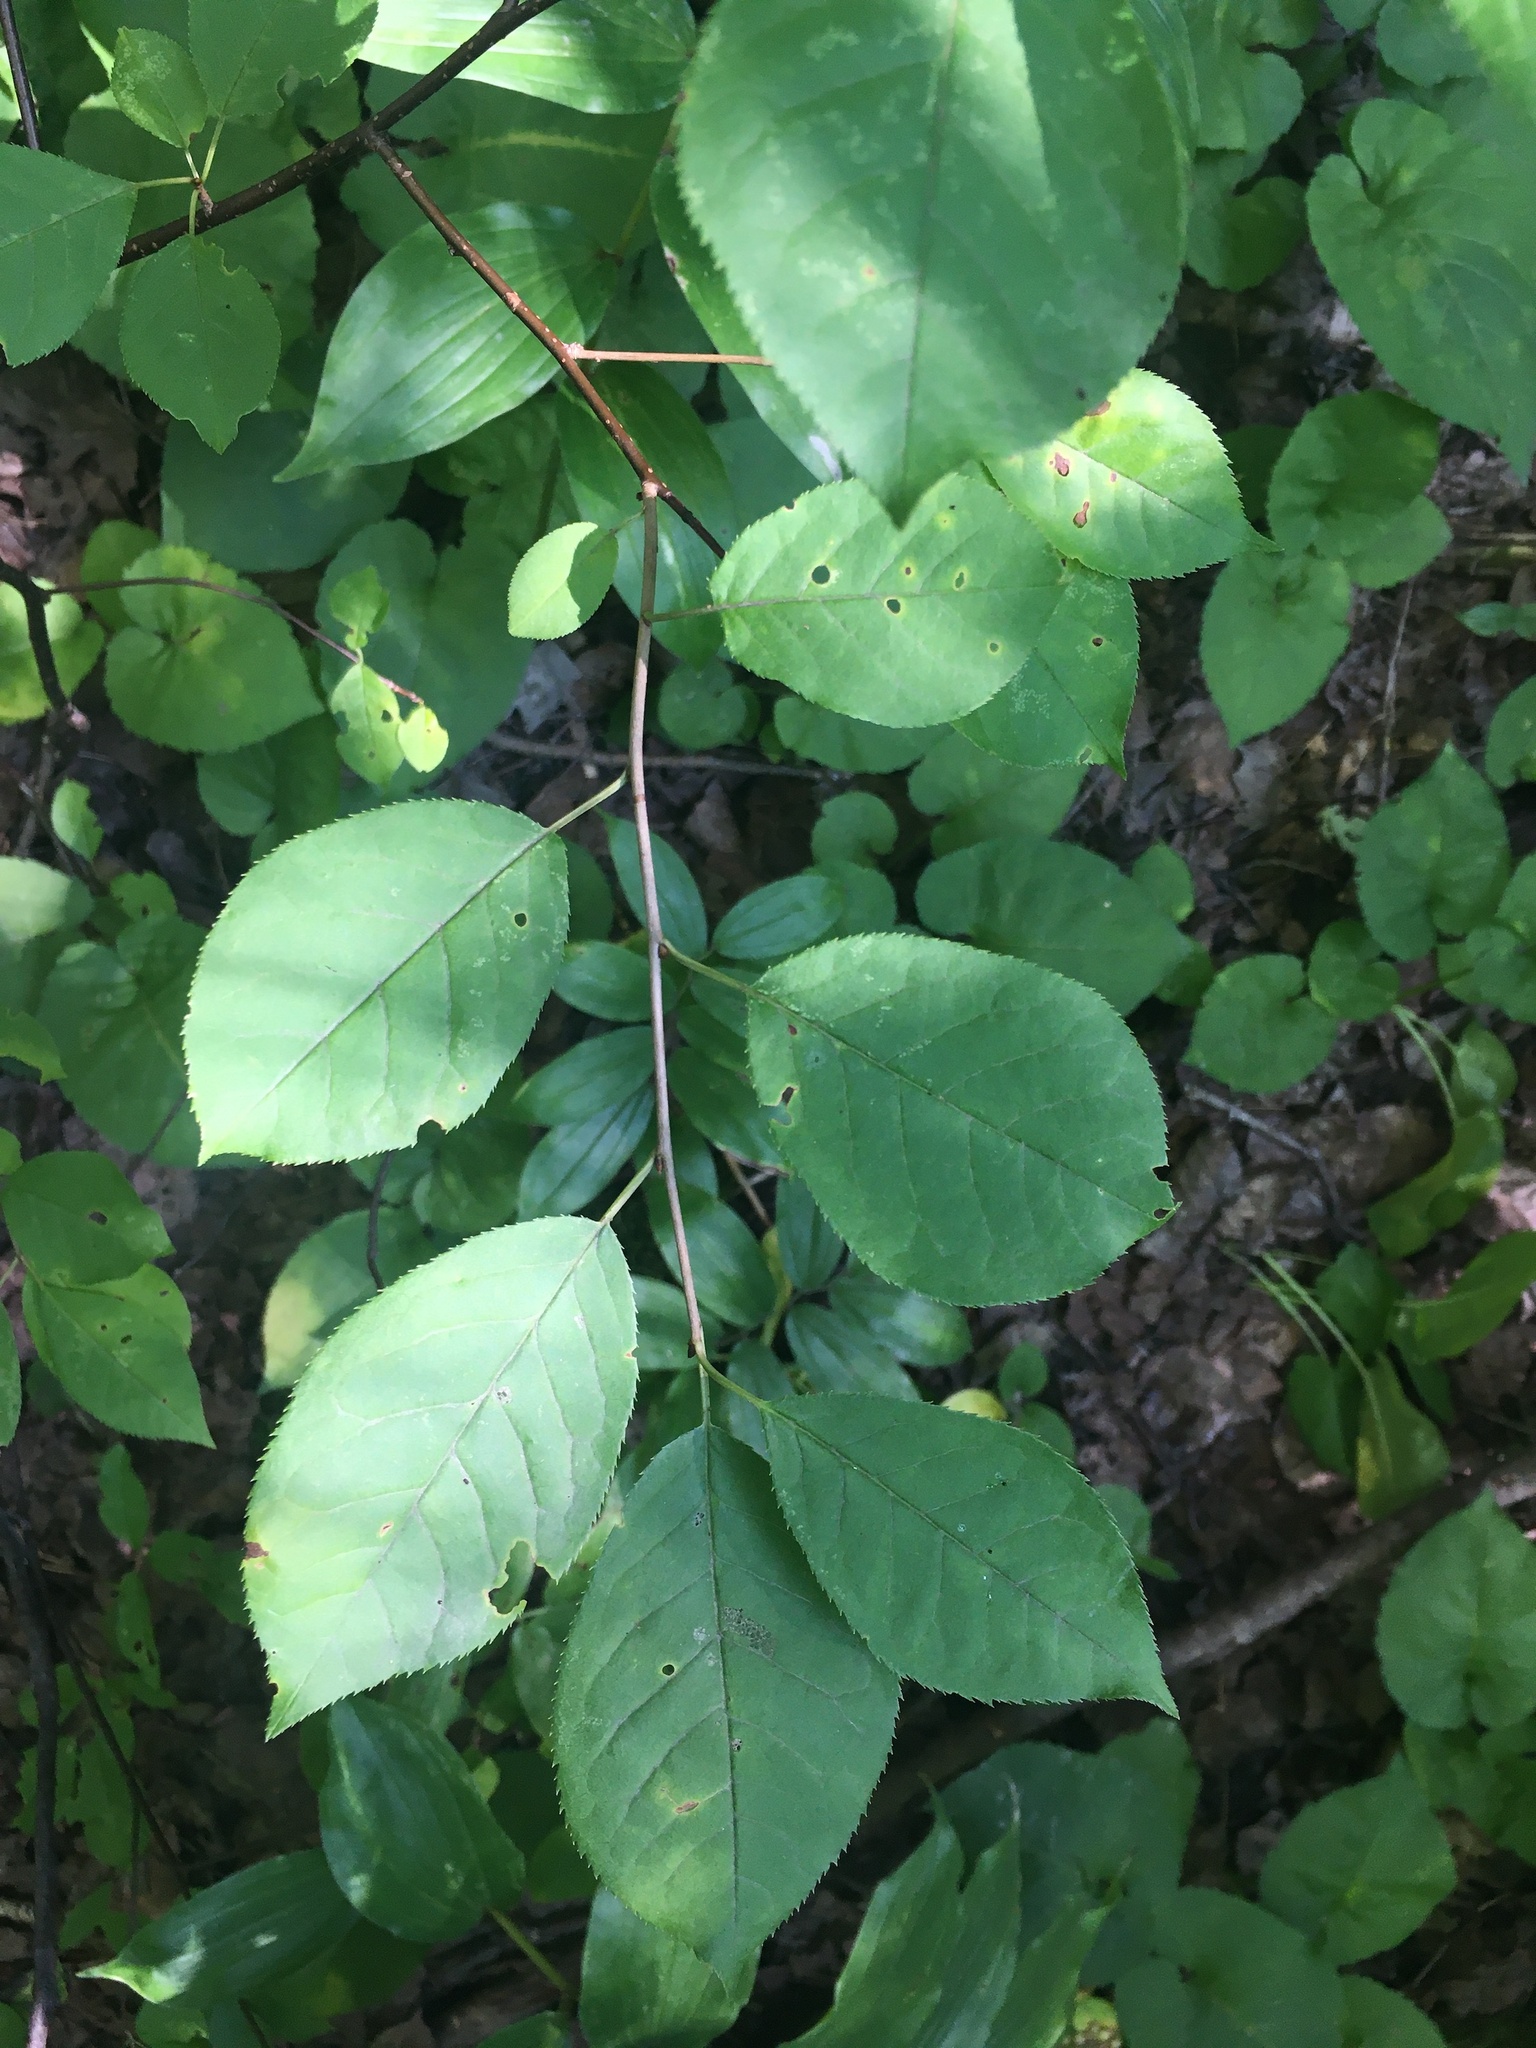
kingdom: Plantae
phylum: Tracheophyta
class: Magnoliopsida
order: Rosales
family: Rosaceae
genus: Prunus
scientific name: Prunus virginiana
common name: Chokecherry
